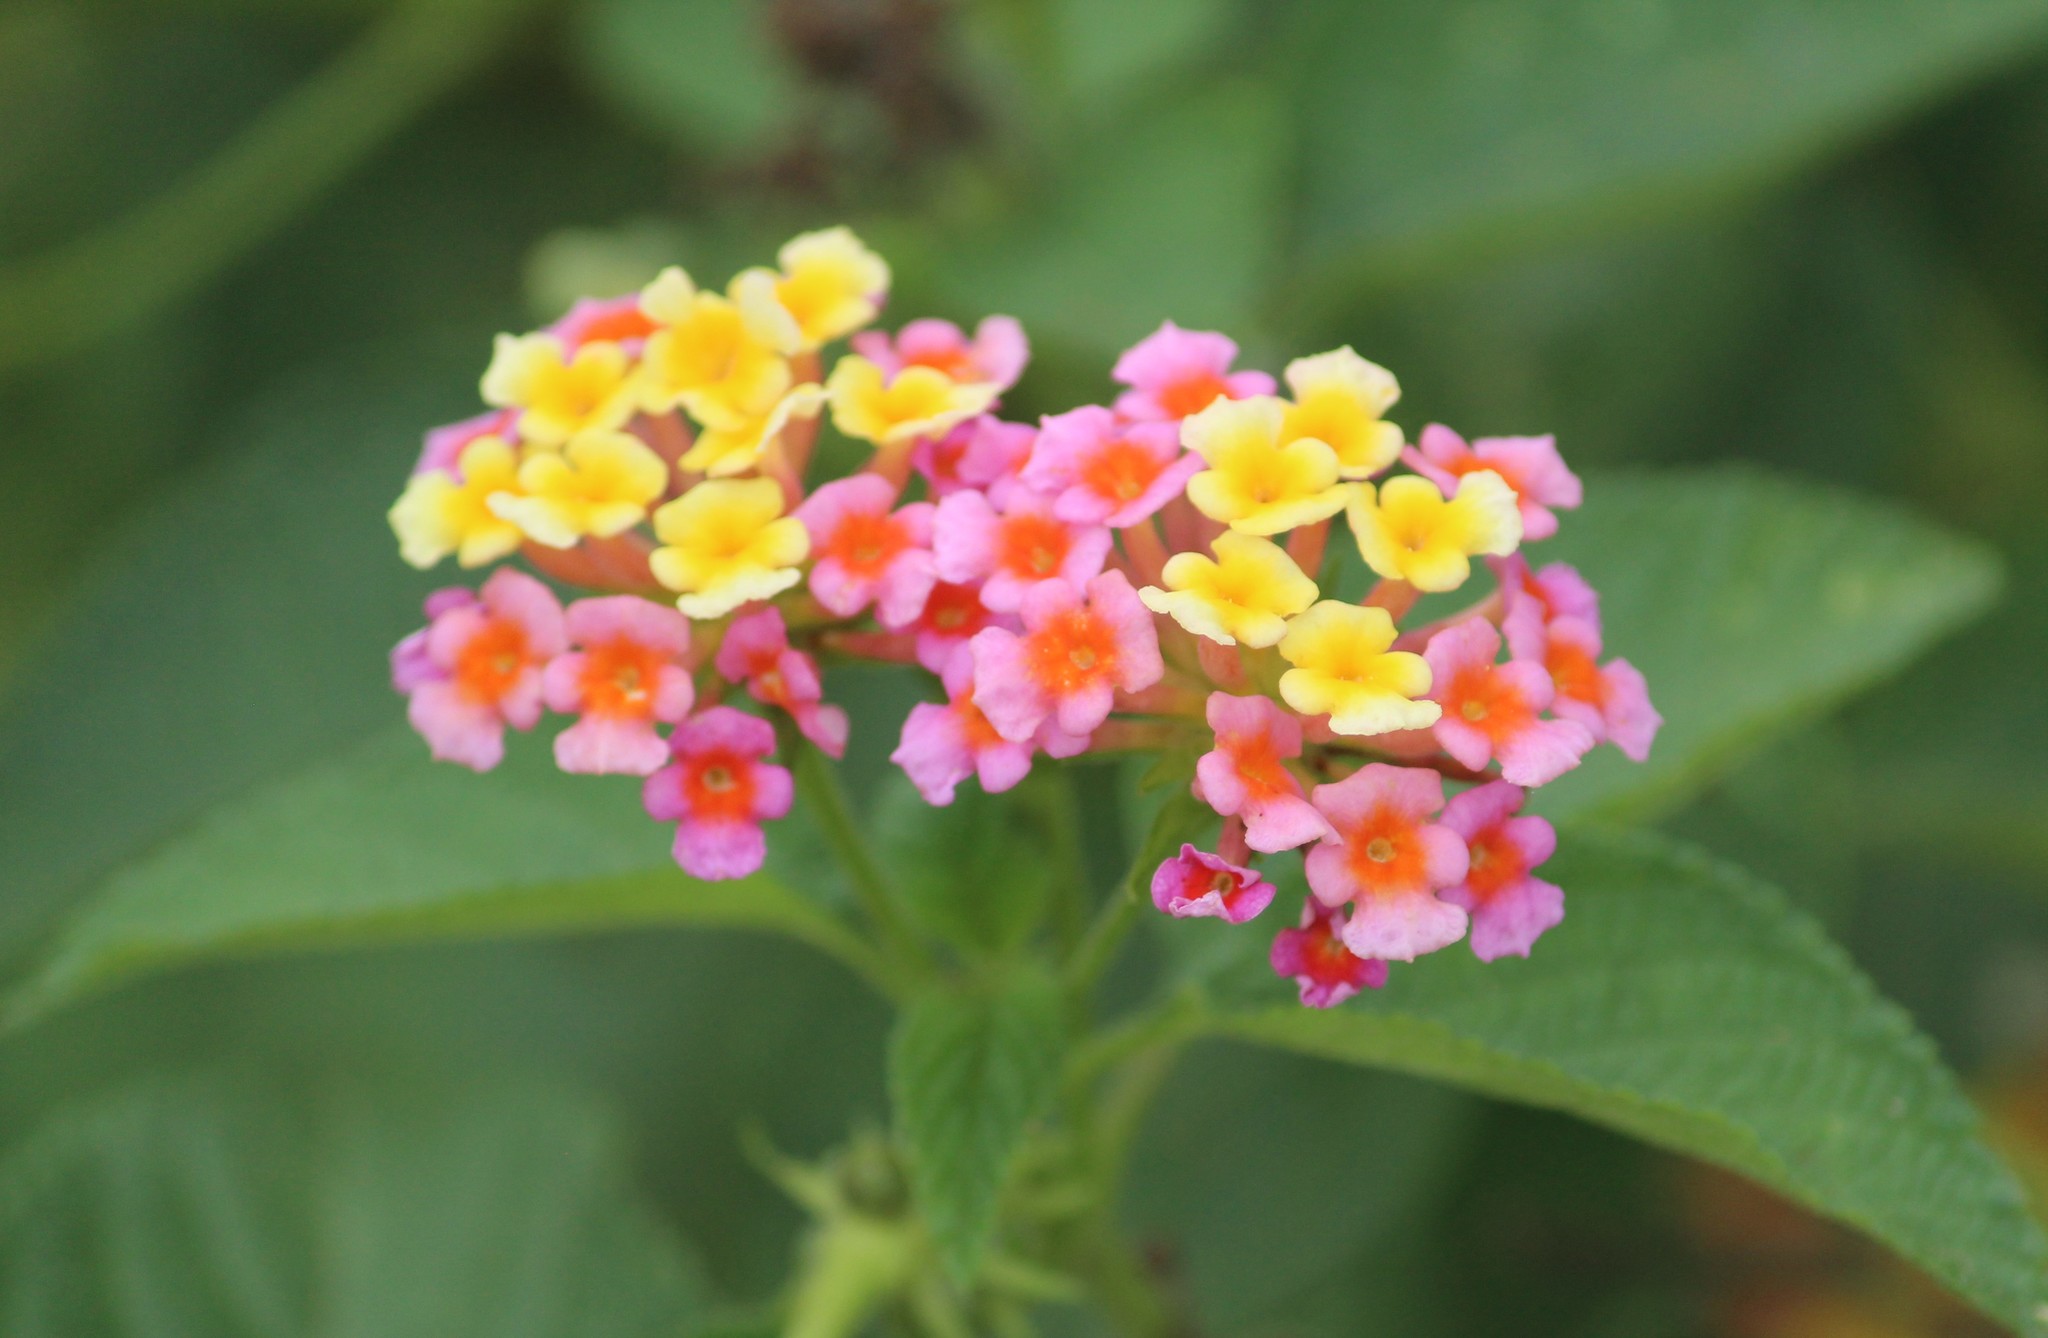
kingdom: Plantae
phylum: Tracheophyta
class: Magnoliopsida
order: Lamiales
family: Verbenaceae
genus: Lantana
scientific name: Lantana camara
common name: Lantana
